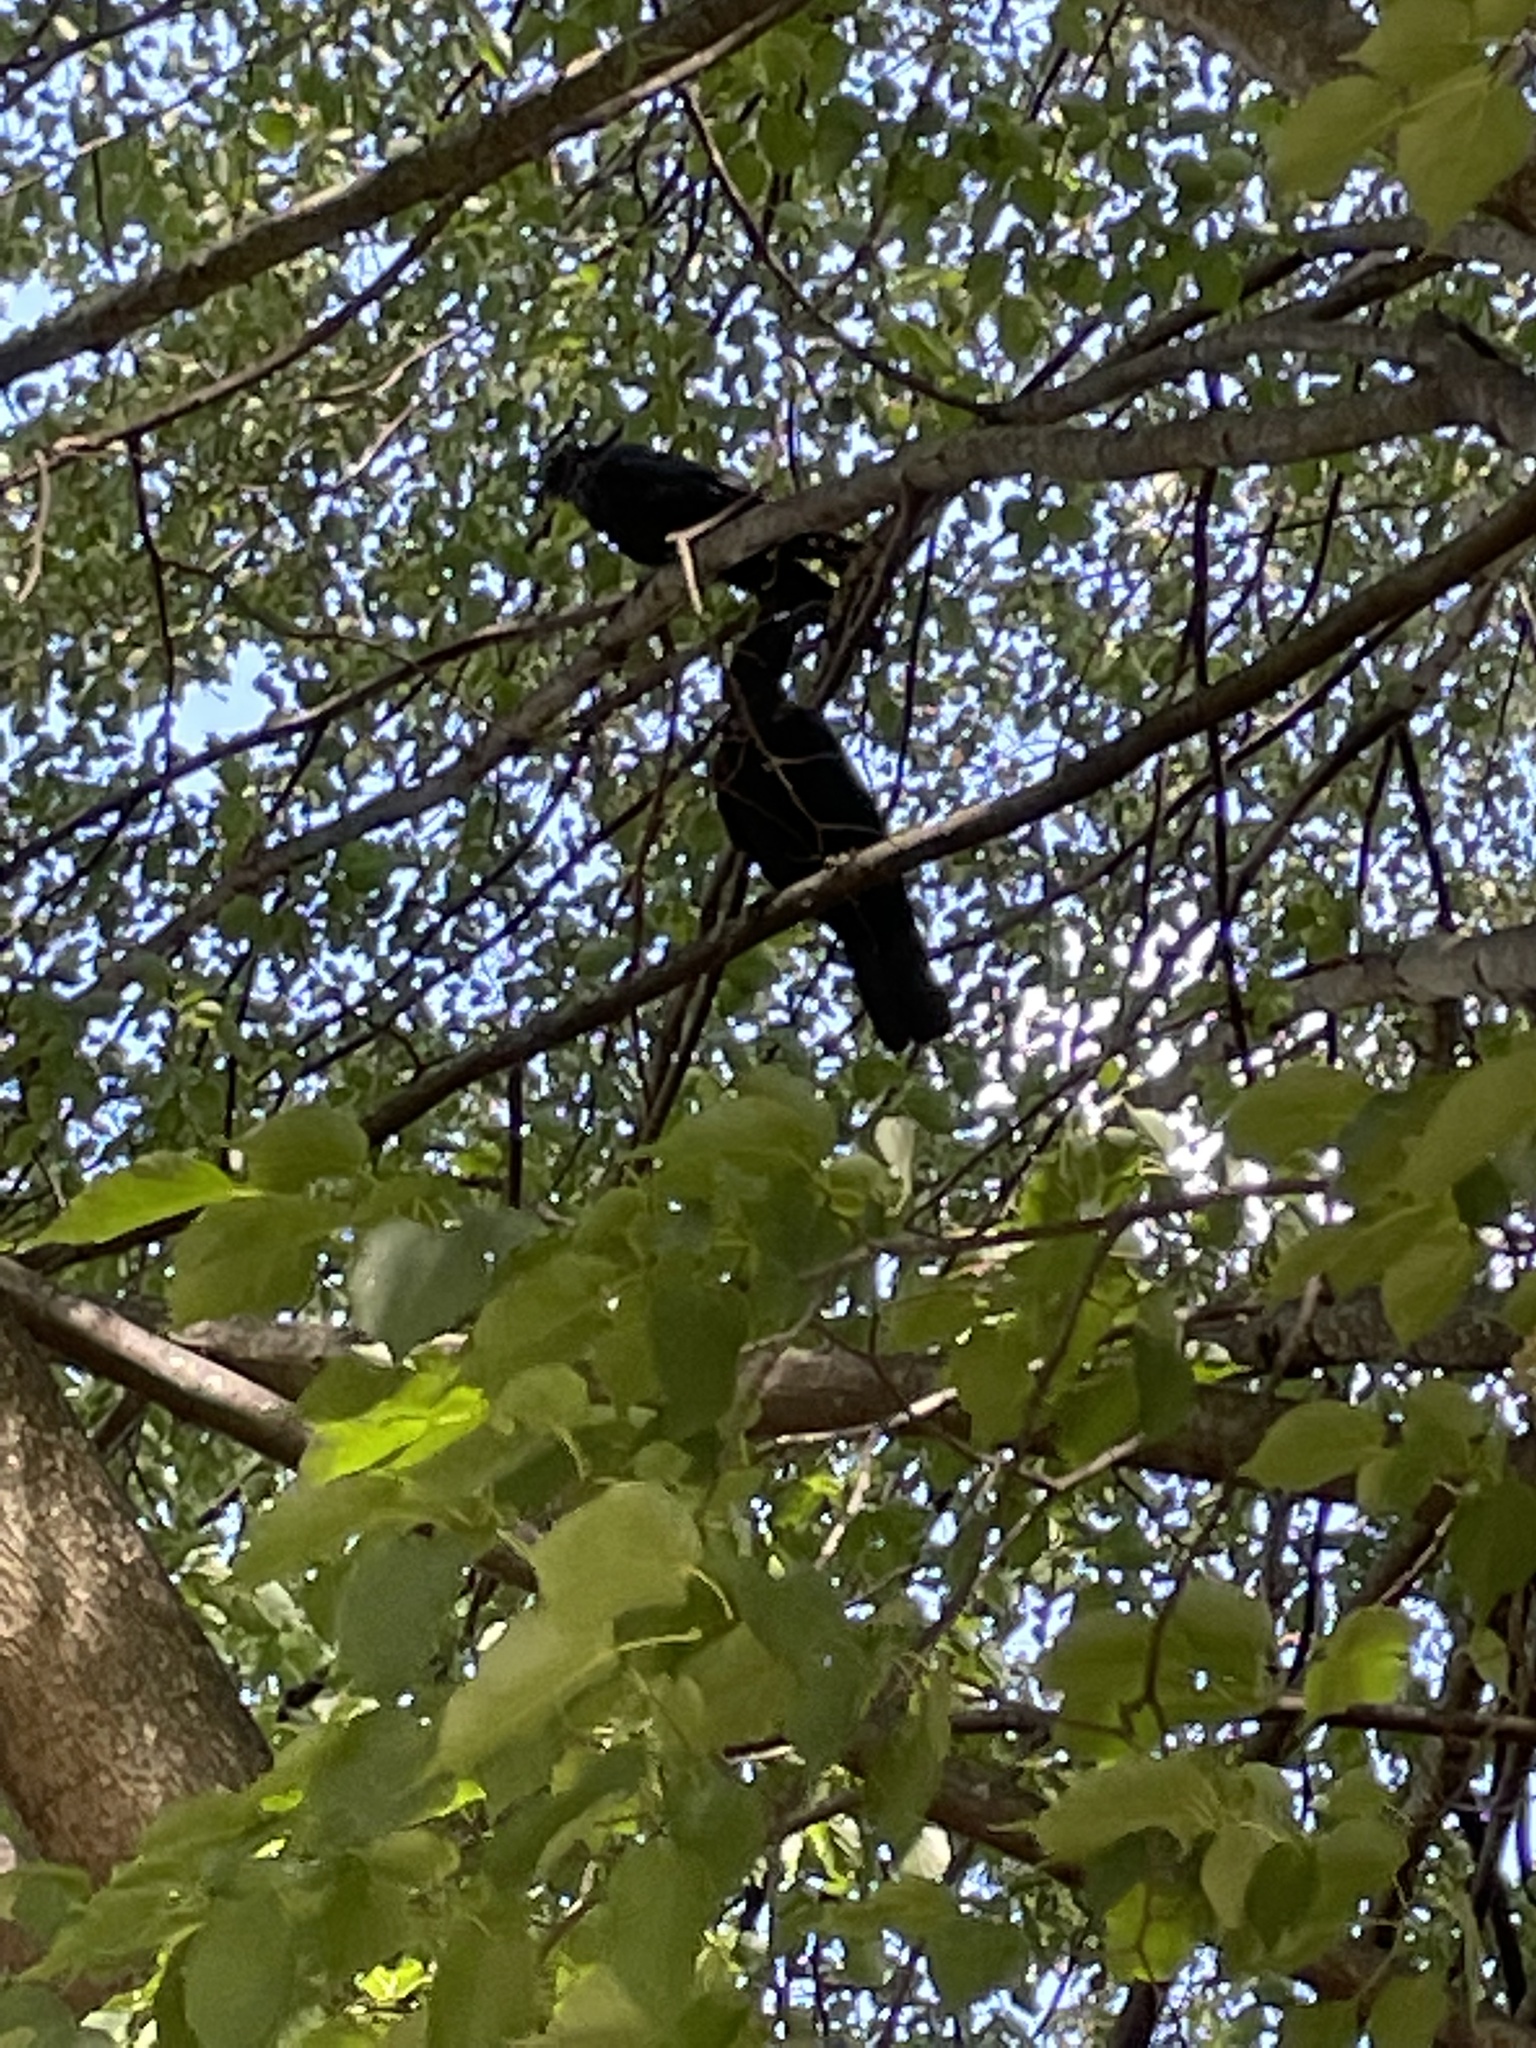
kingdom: Animalia
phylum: Chordata
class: Aves
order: Passeriformes
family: Corvidae
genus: Corvus
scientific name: Corvus brachyrhynchos
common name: American crow
